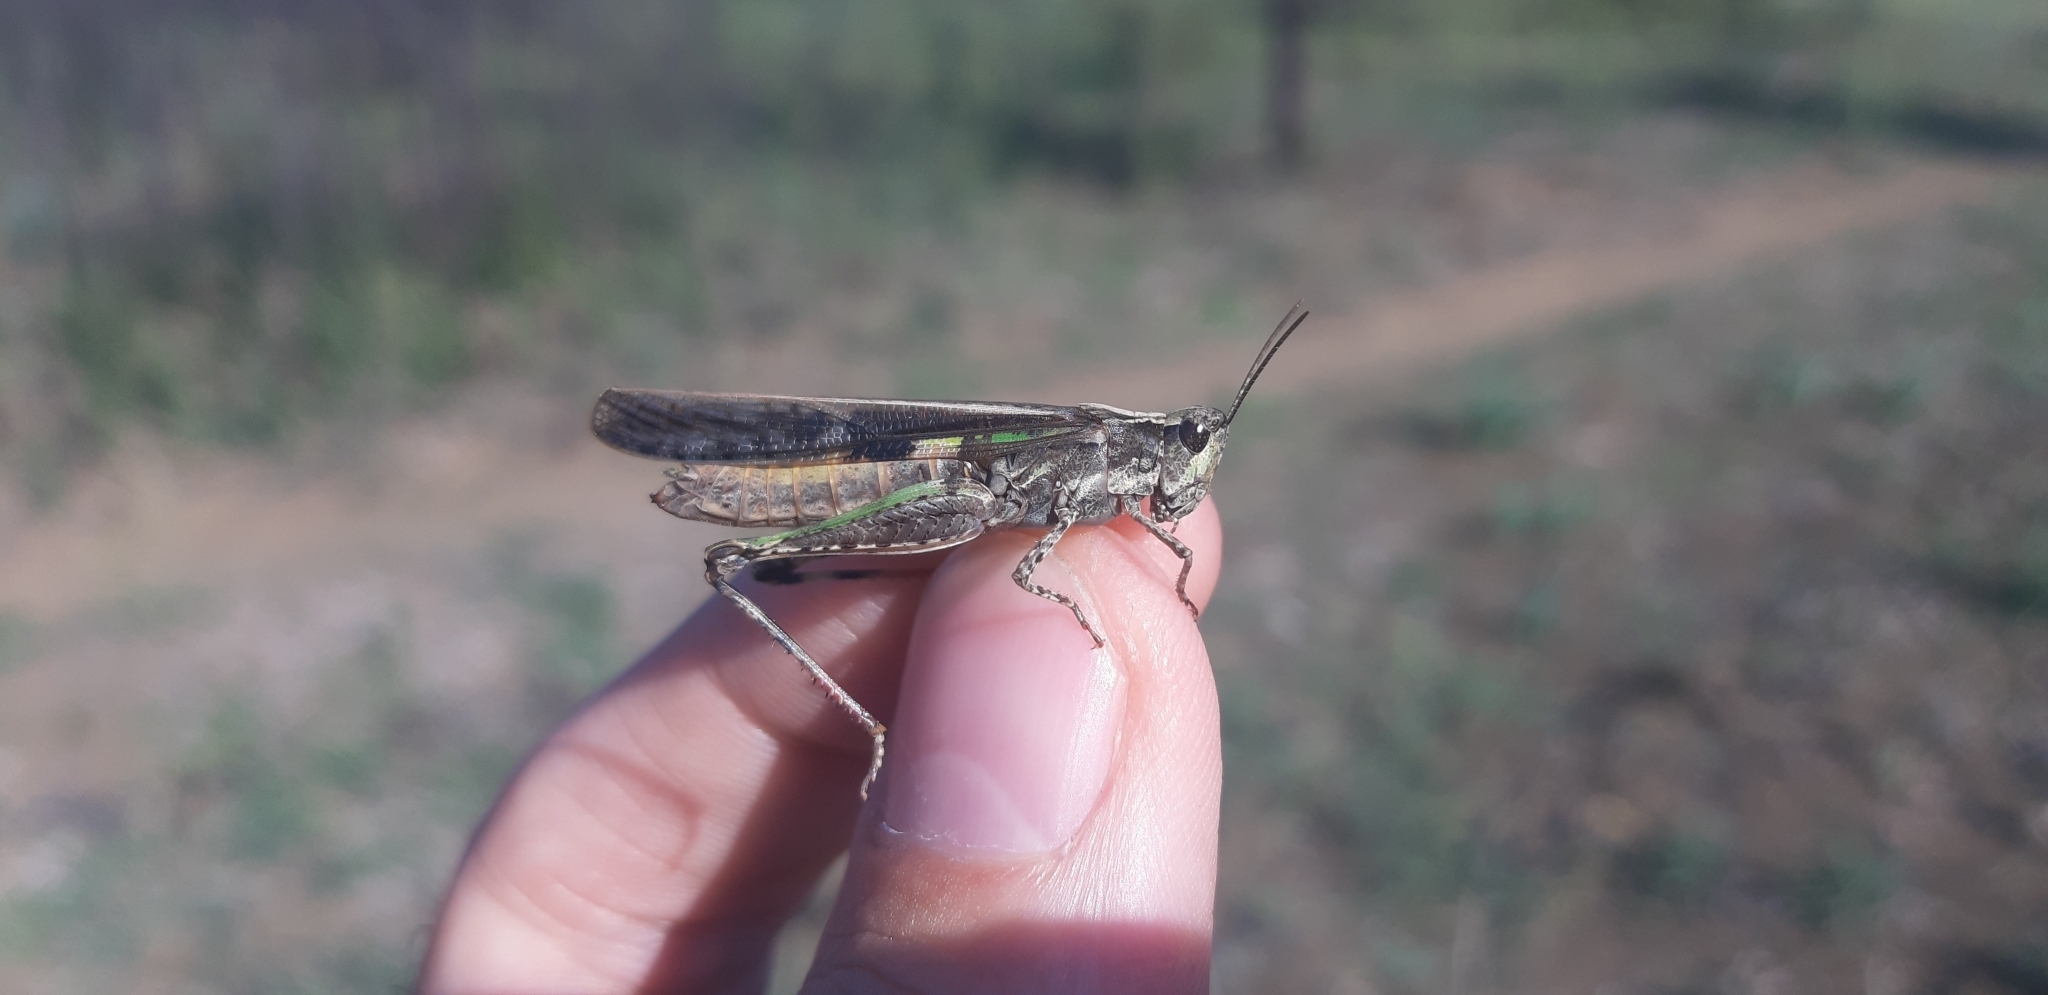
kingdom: Animalia
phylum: Arthropoda
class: Insecta
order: Orthoptera
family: Acrididae
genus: Aiolopus
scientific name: Aiolopus thalassinus
